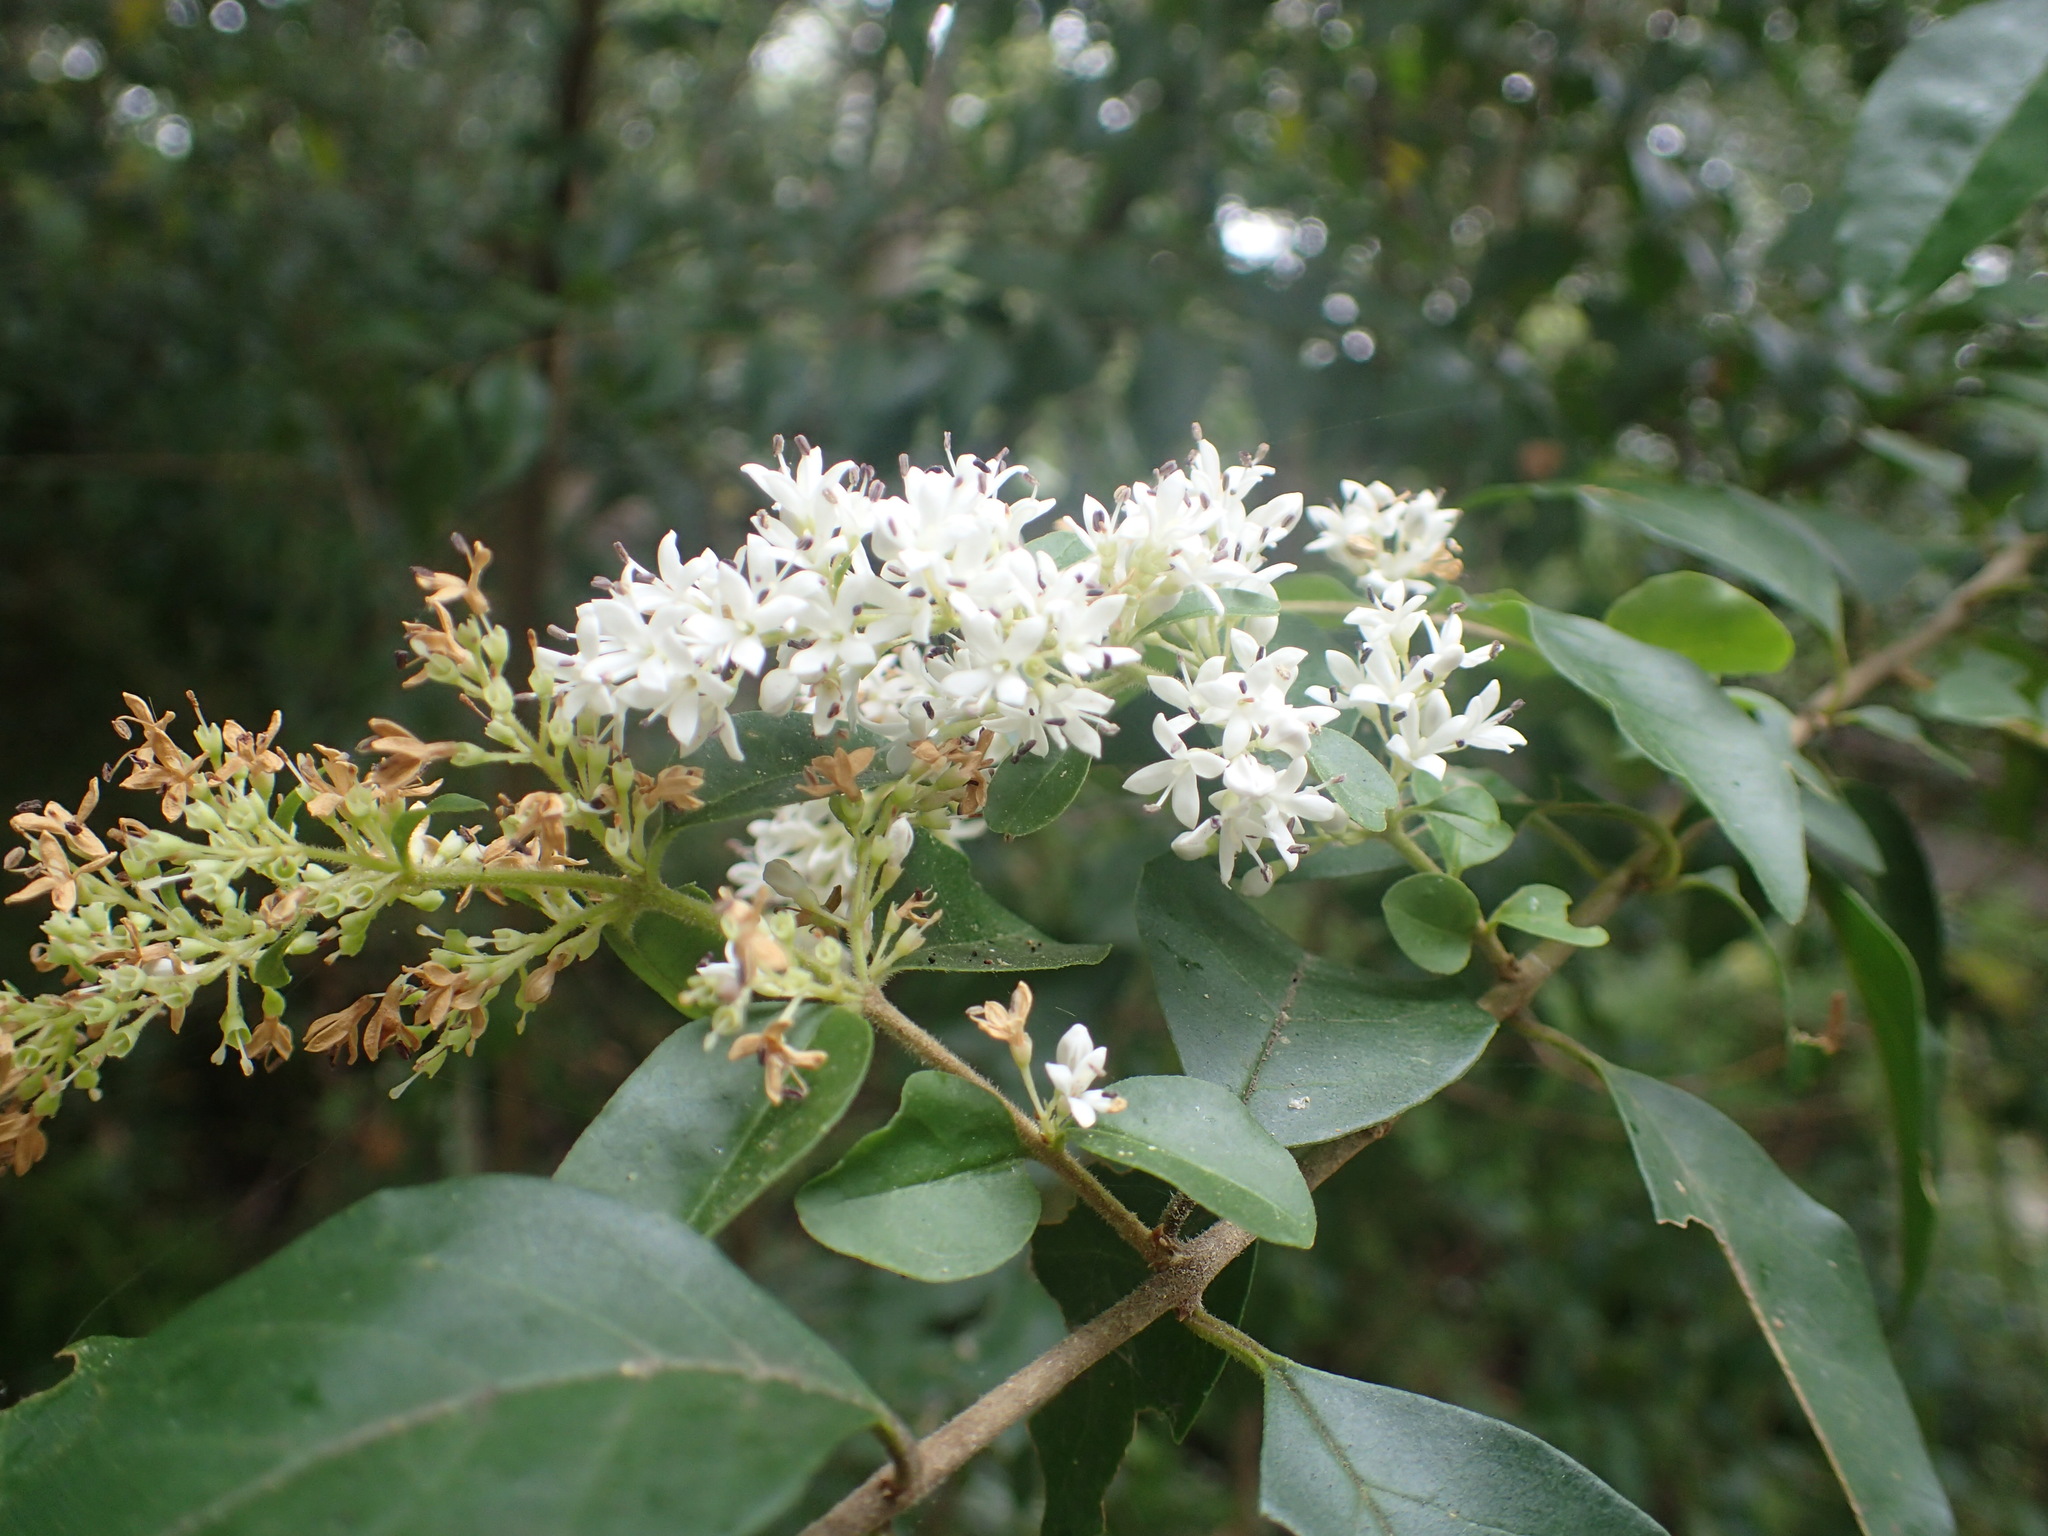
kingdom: Plantae
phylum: Tracheophyta
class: Magnoliopsida
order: Lamiales
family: Oleaceae
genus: Ligustrum
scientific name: Ligustrum sinense
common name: Chinese privet
